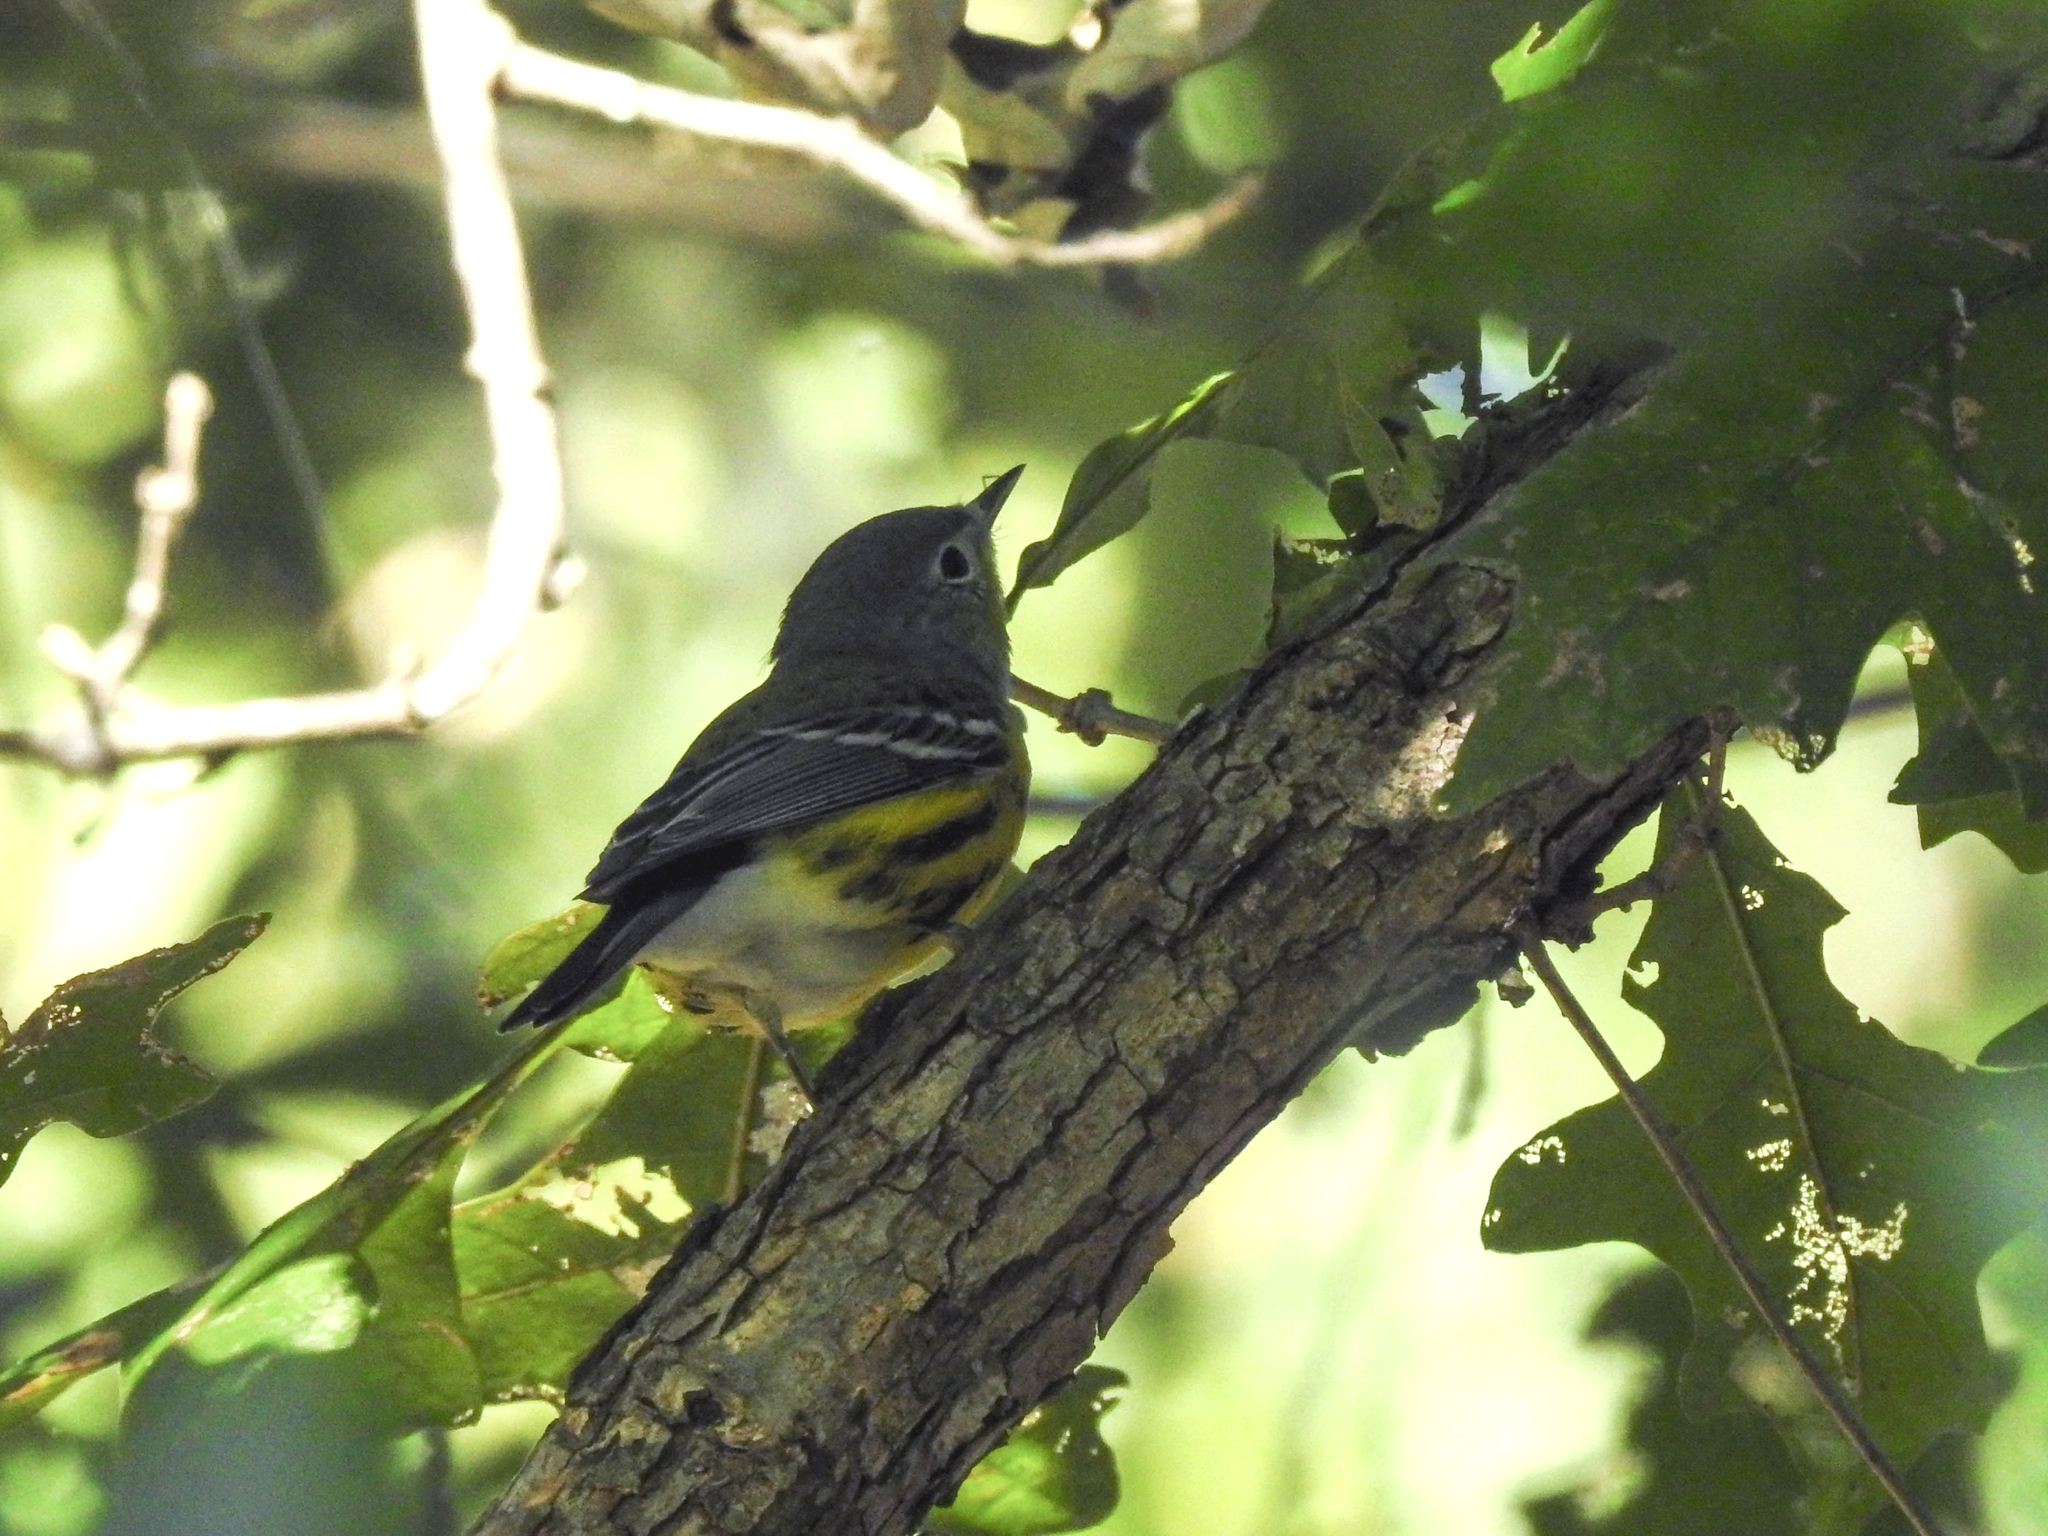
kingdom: Animalia
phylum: Chordata
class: Aves
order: Passeriformes
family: Parulidae
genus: Setophaga
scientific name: Setophaga magnolia
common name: Magnolia warbler
